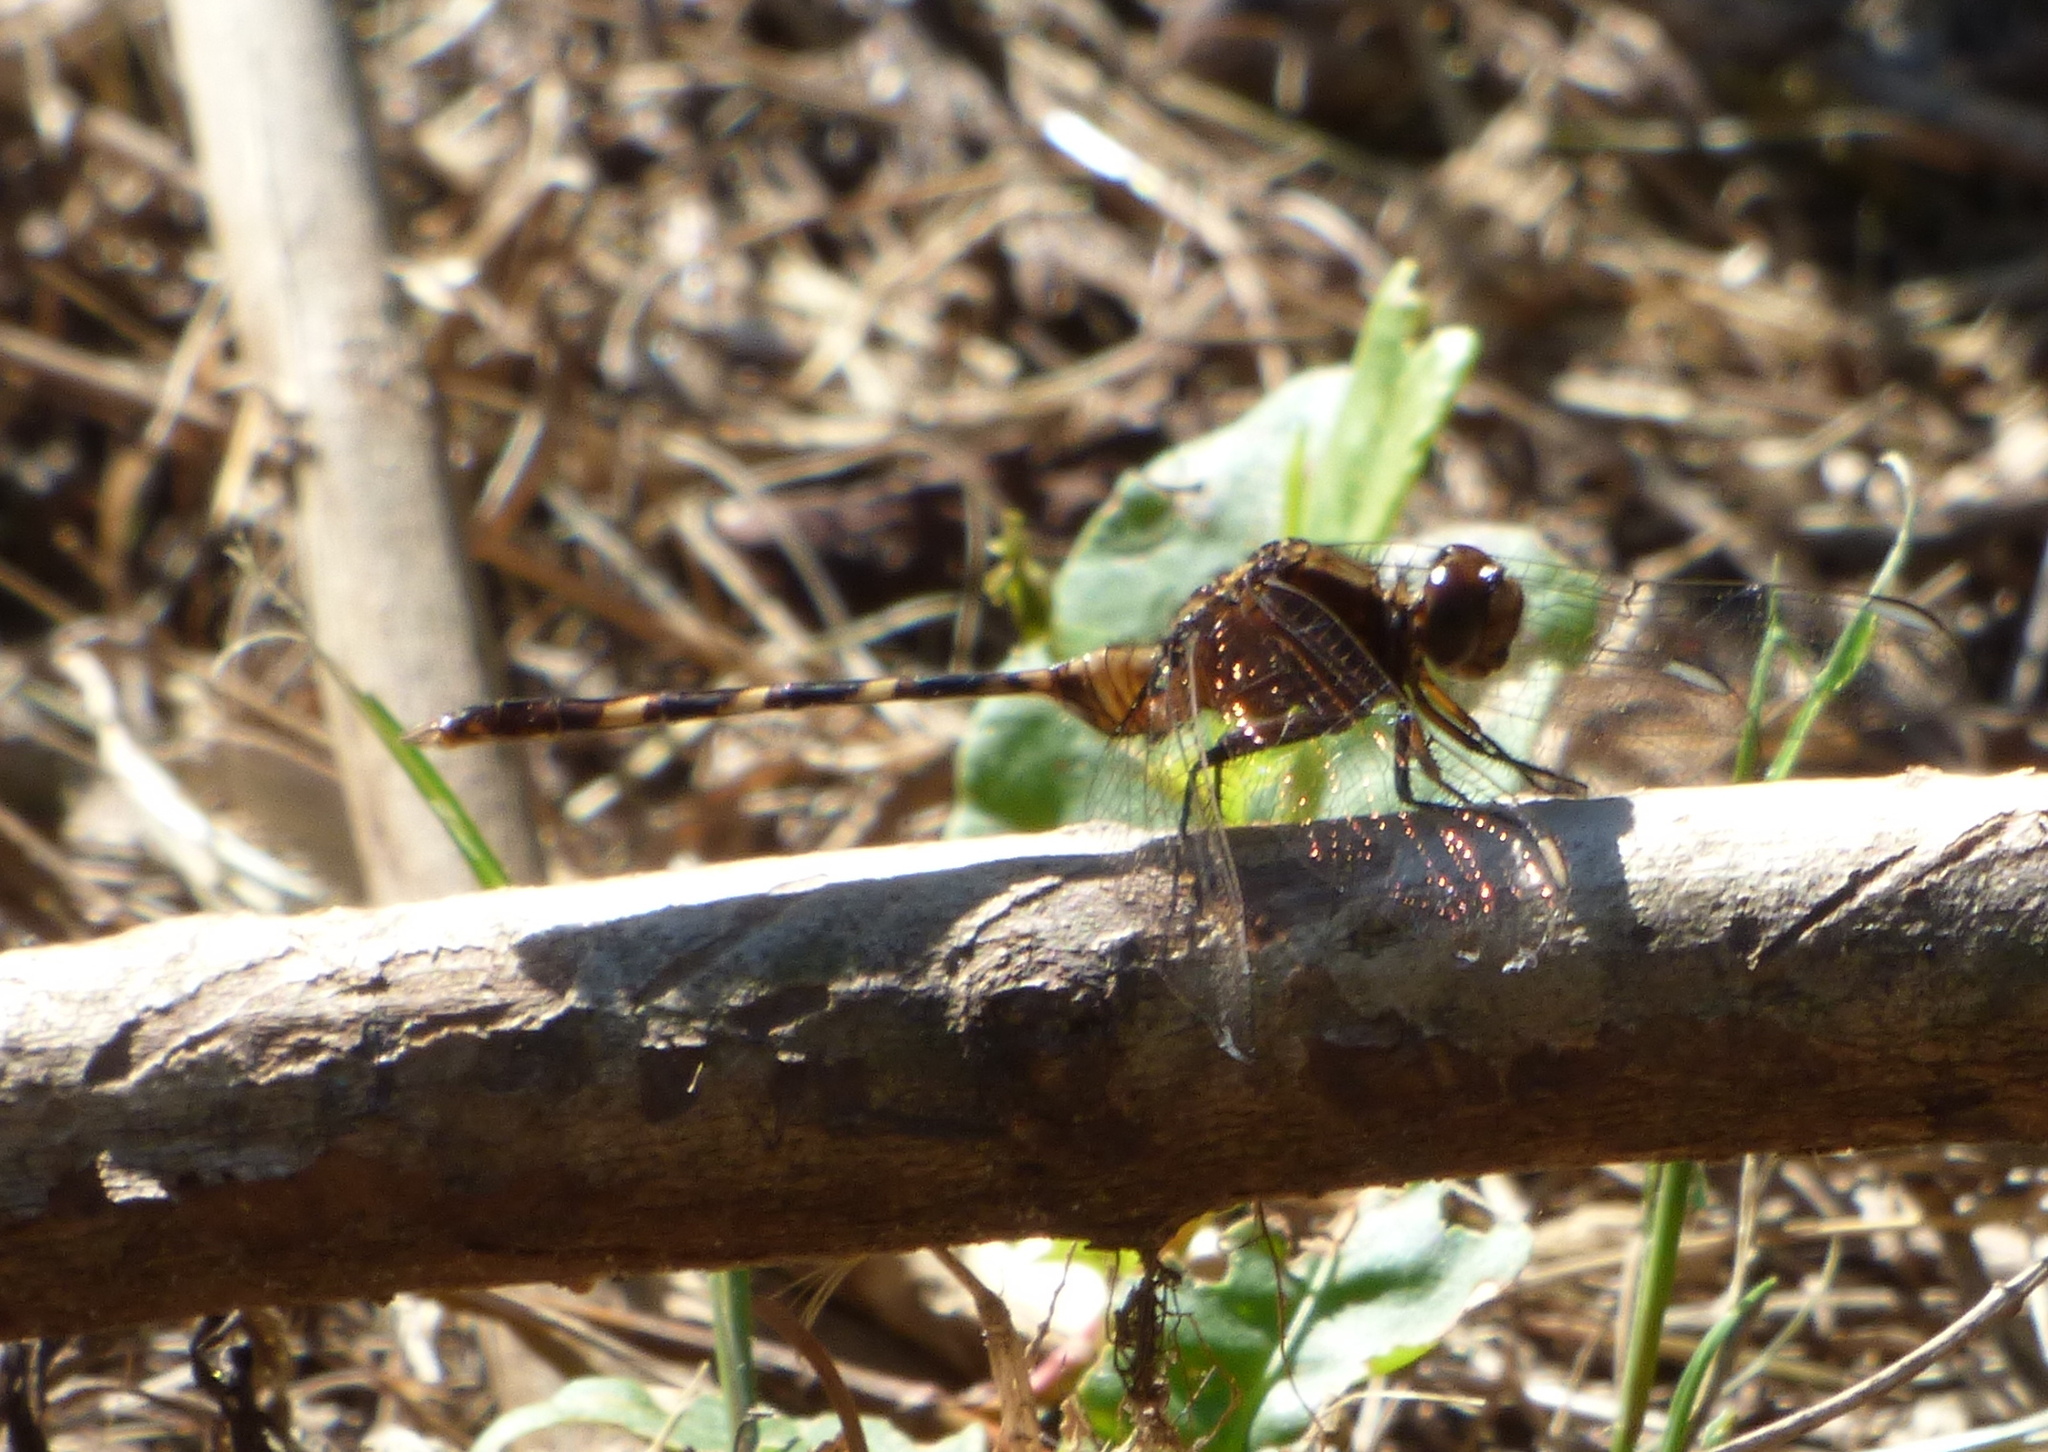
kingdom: Animalia
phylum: Arthropoda
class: Insecta
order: Odonata
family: Libellulidae
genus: Erythemis
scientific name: Erythemis plebeja
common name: Pin-tailed pondhawk
